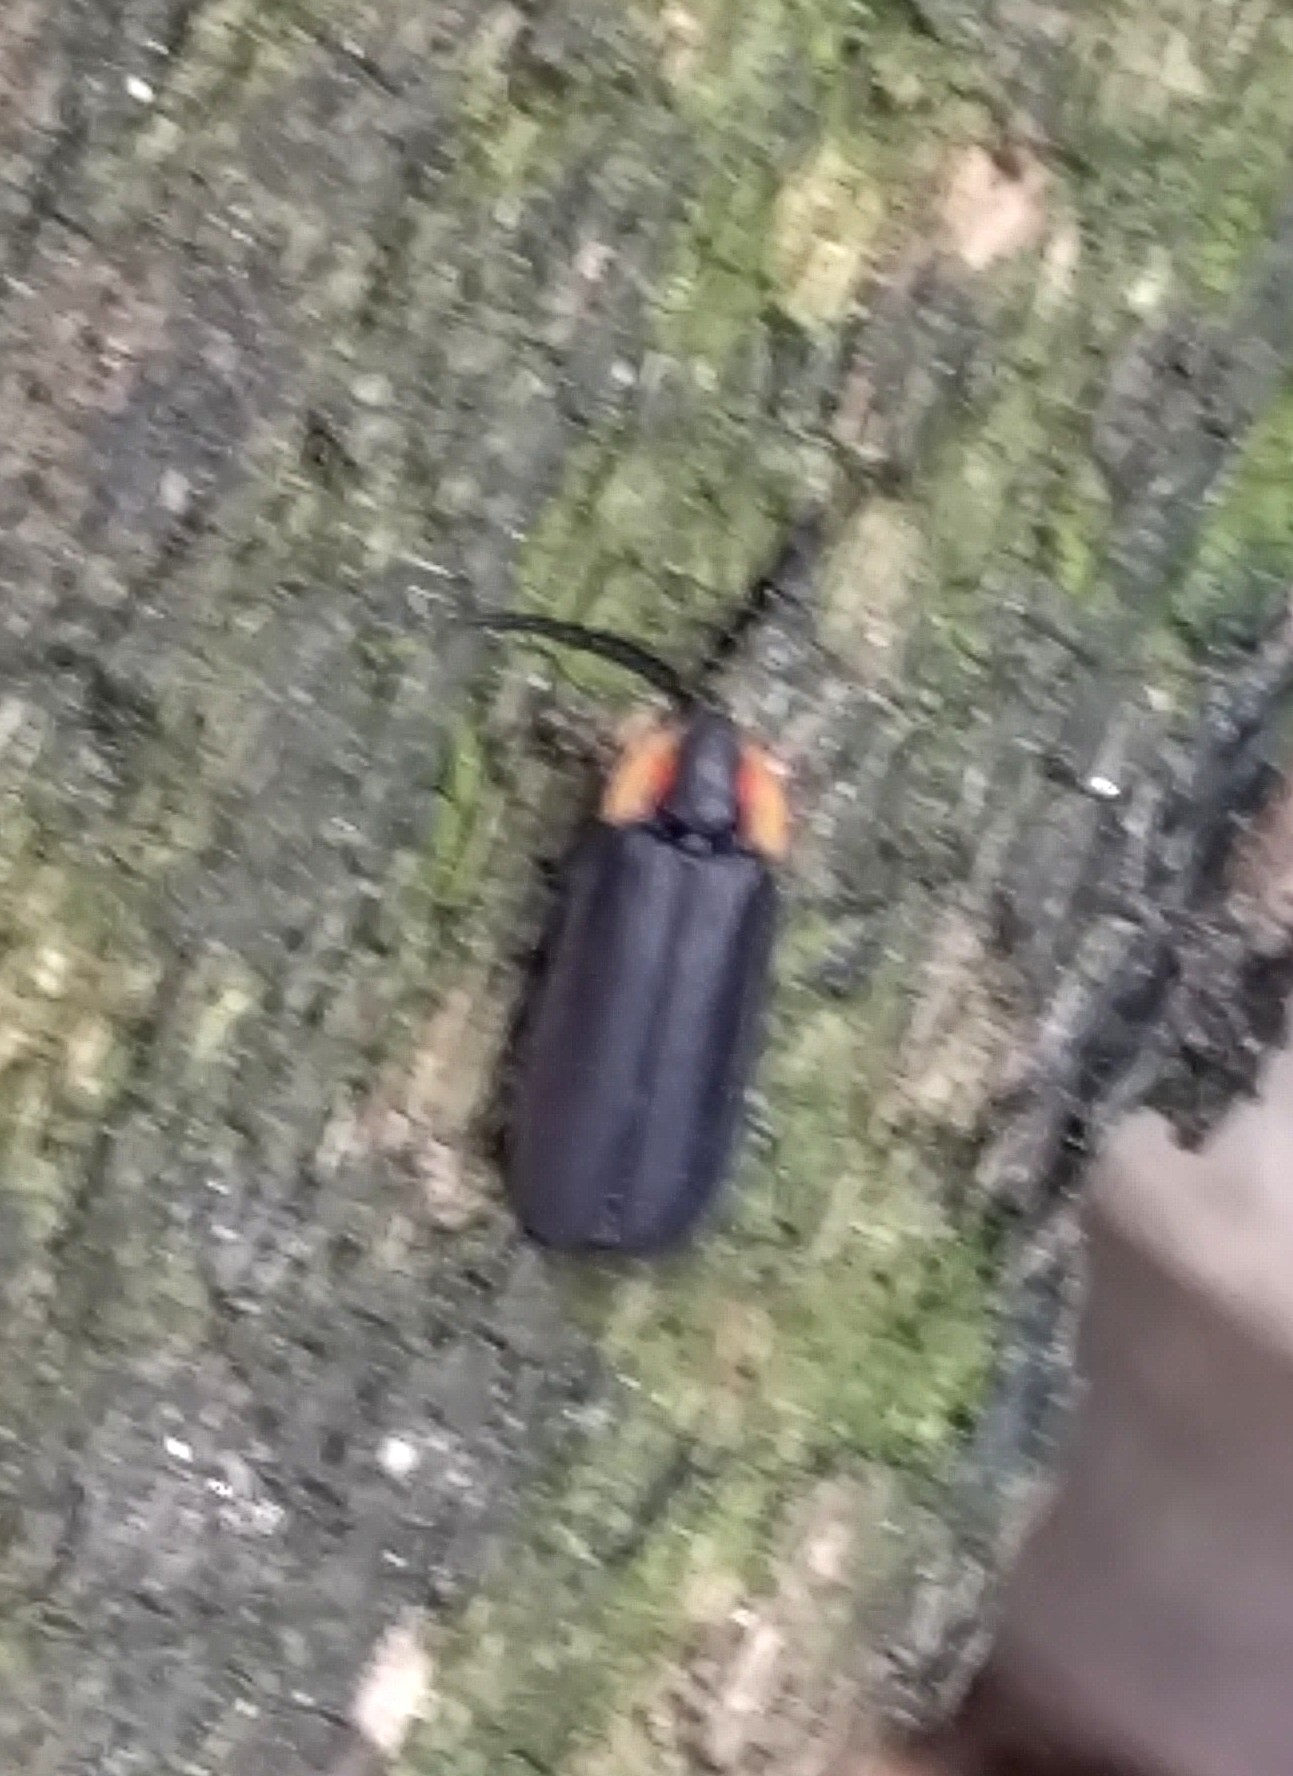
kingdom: Animalia
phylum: Arthropoda
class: Insecta
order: Coleoptera
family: Lampyridae
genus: Lucidota
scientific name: Lucidota atra
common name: Black firefly
